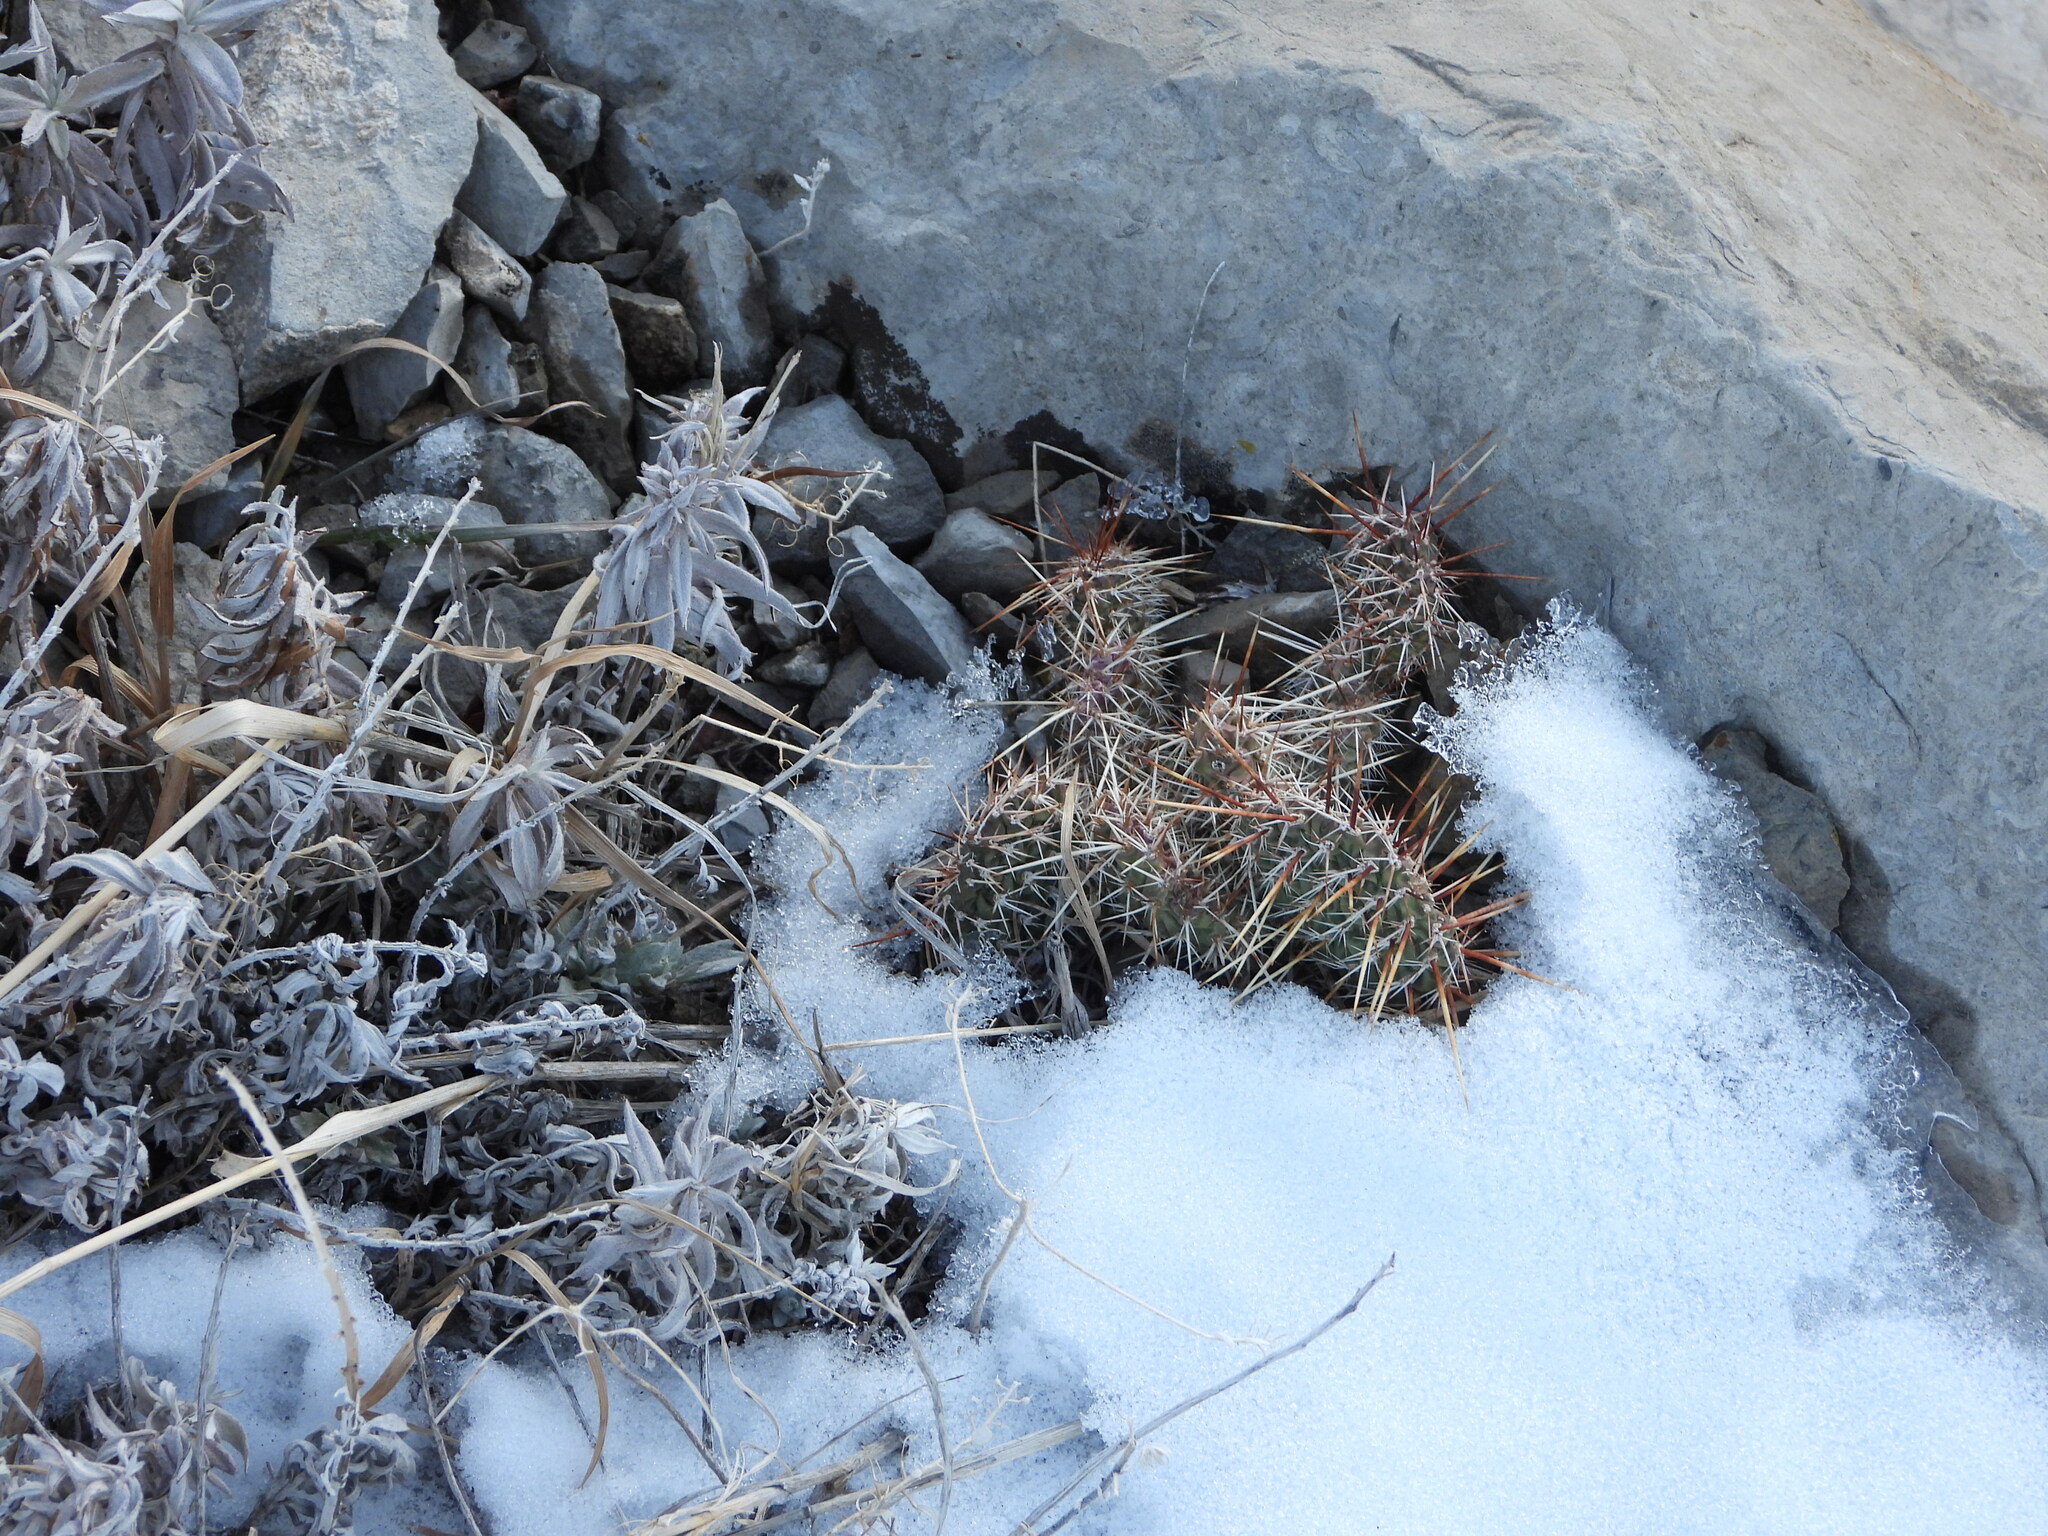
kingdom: Plantae
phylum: Tracheophyta
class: Magnoliopsida
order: Caryophyllales
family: Cactaceae
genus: Opuntia
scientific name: Opuntia polyacantha
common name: Plains prickly-pear
